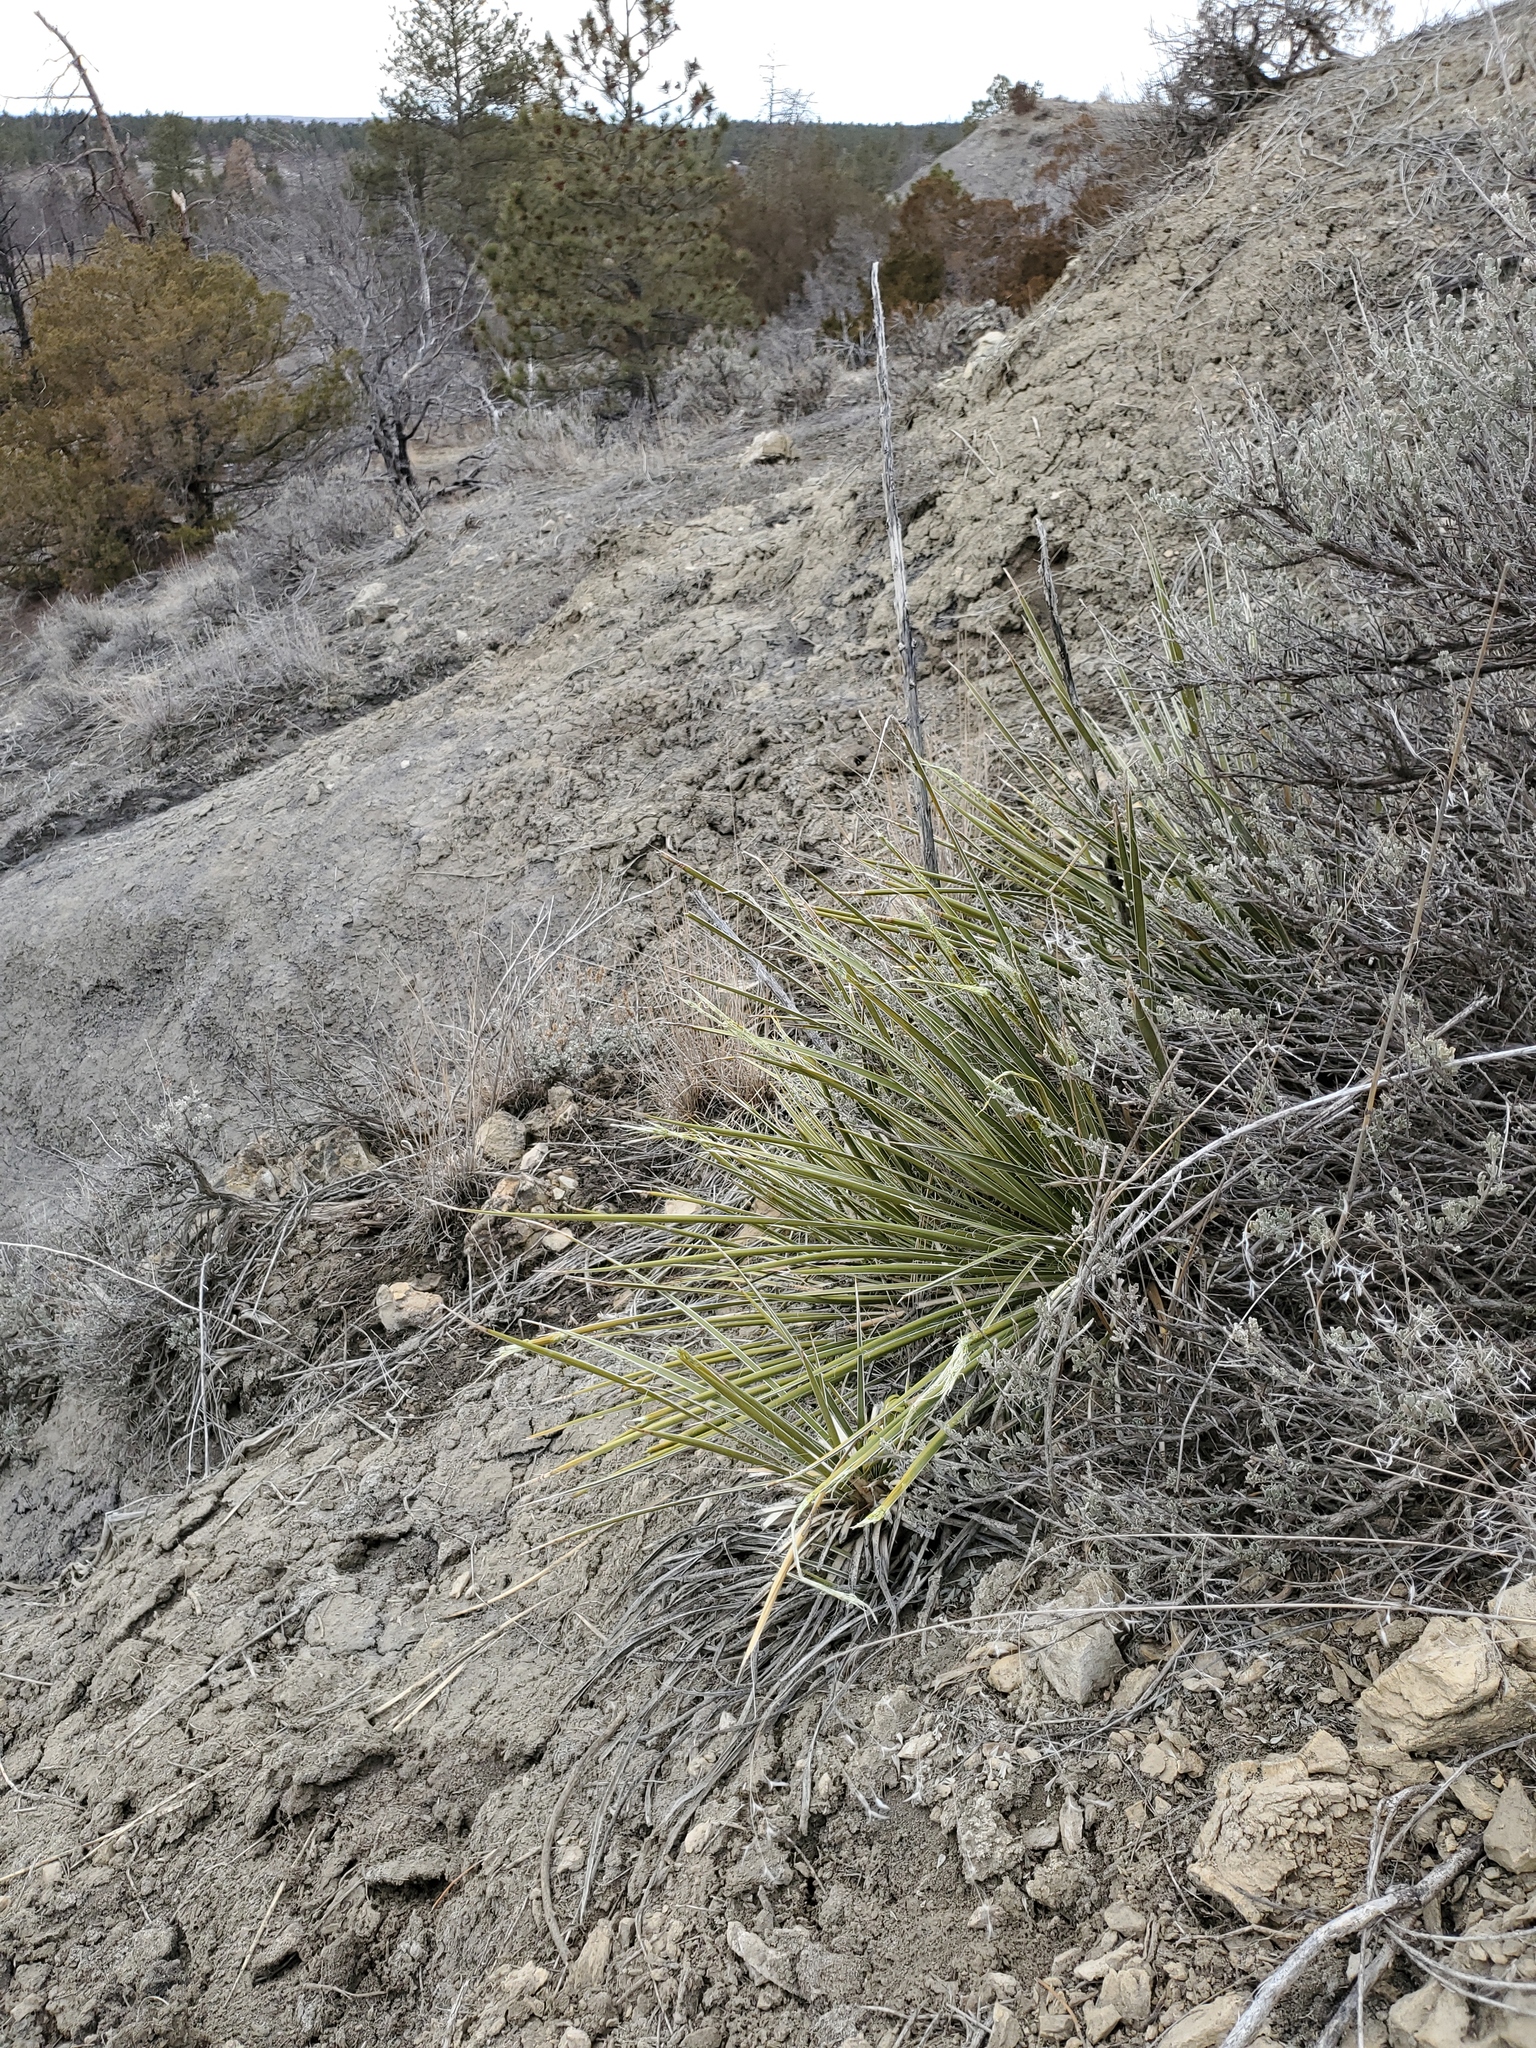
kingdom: Plantae
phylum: Tracheophyta
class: Liliopsida
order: Asparagales
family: Asparagaceae
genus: Yucca
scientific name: Yucca glauca
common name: Great plains yucca
